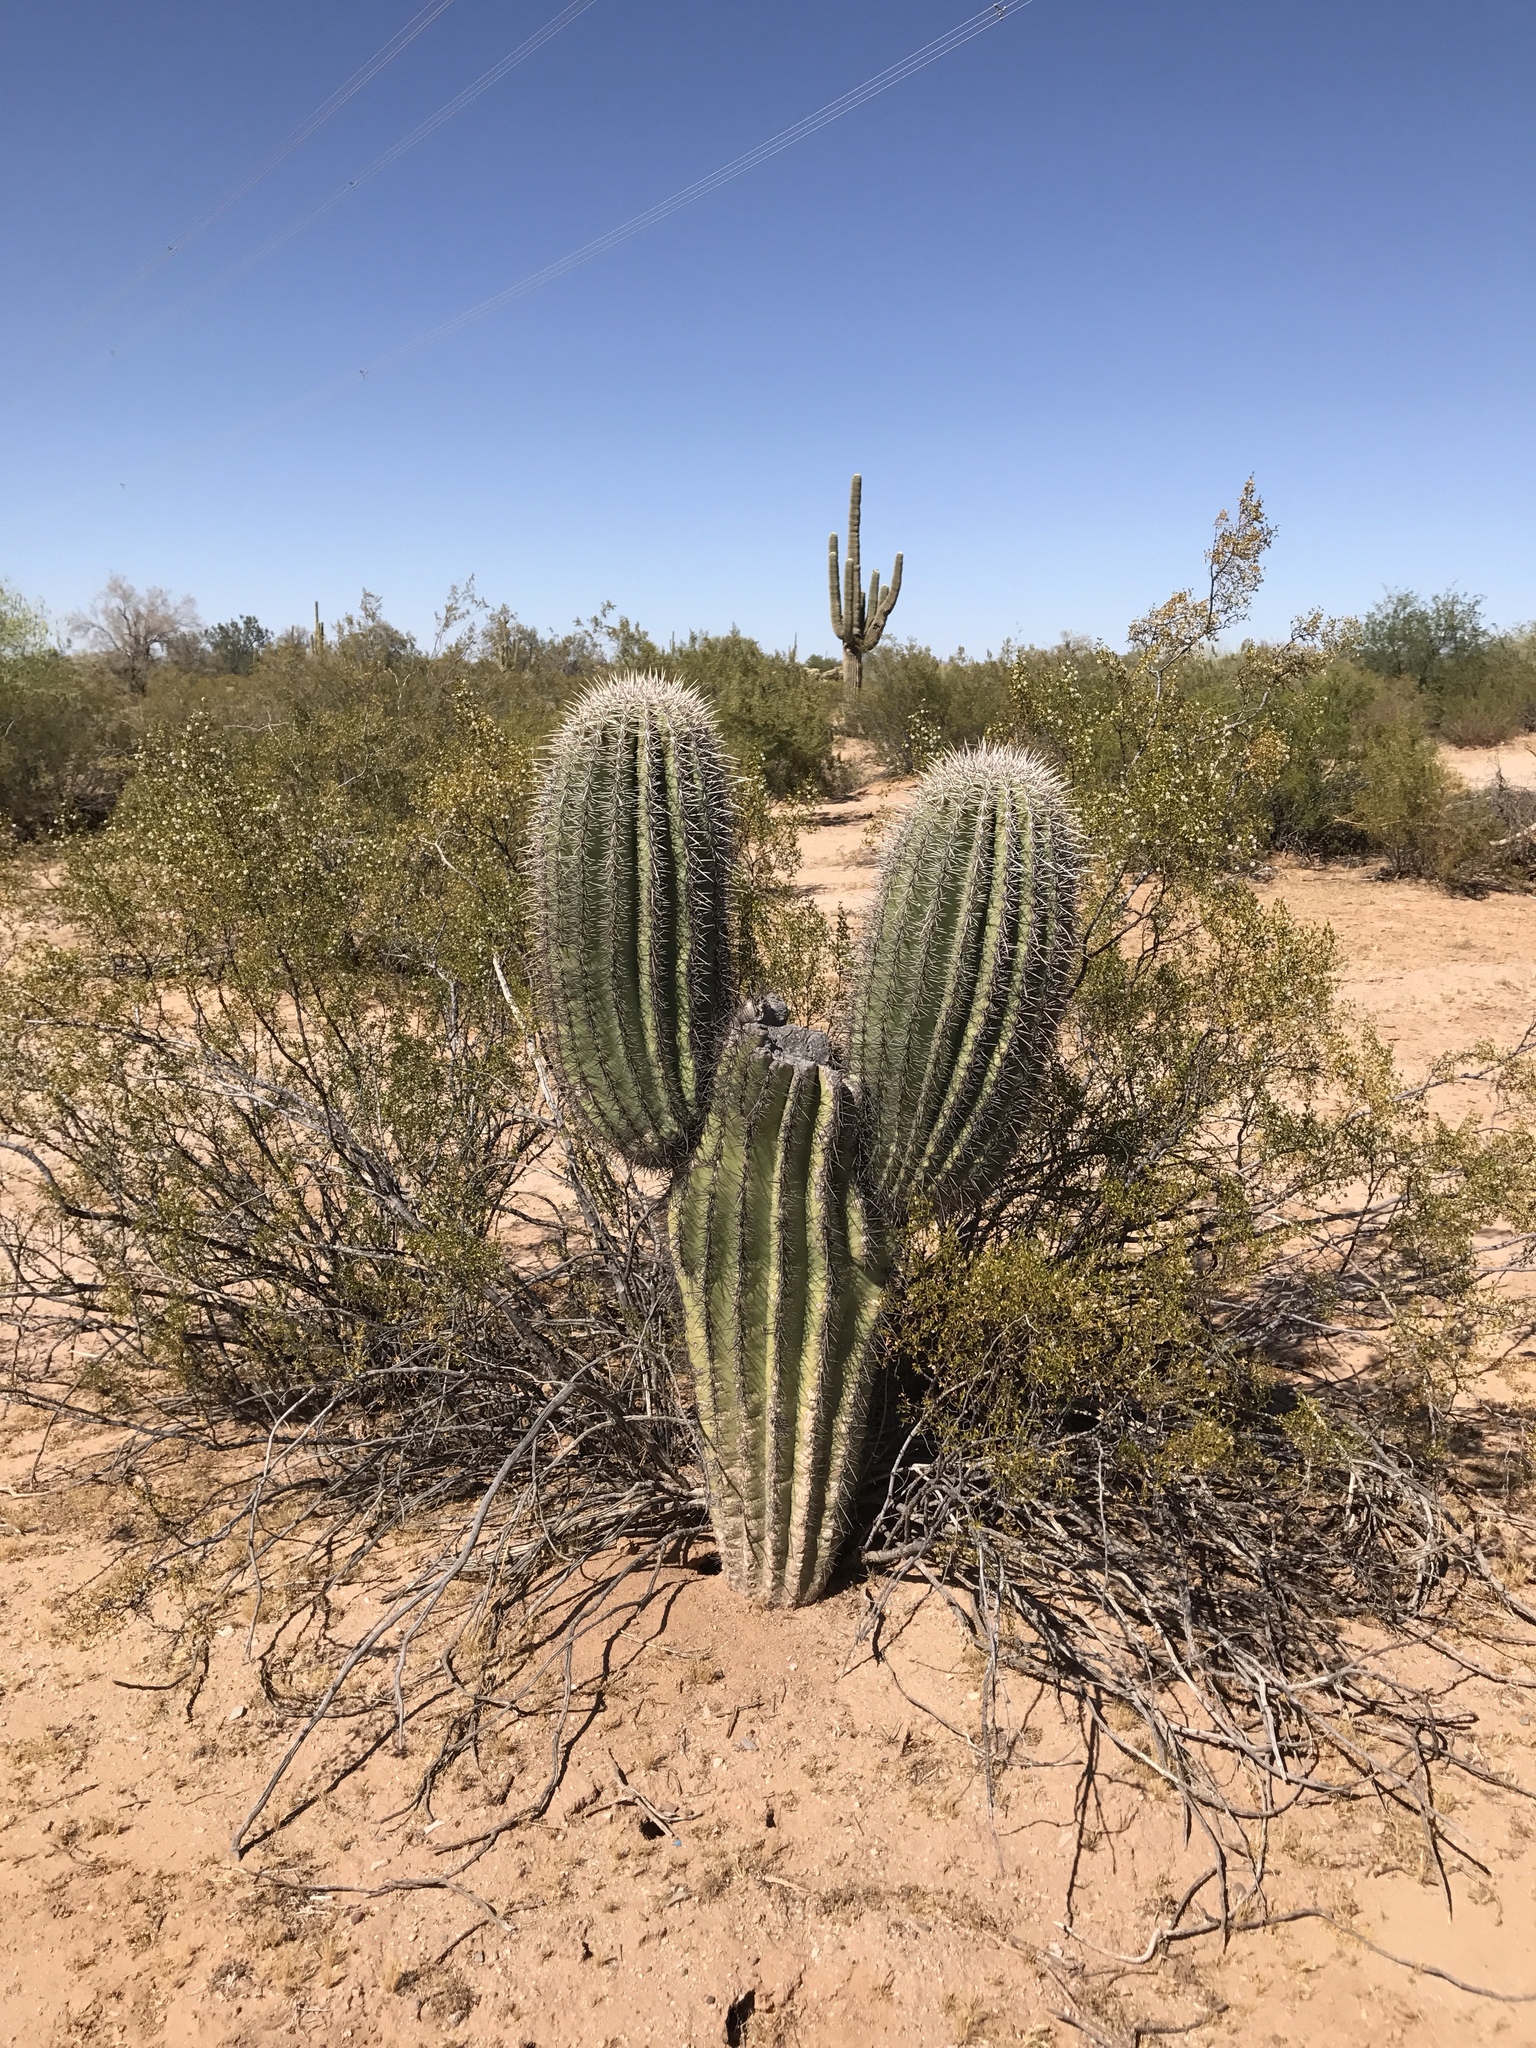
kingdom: Plantae
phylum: Tracheophyta
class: Magnoliopsida
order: Caryophyllales
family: Cactaceae
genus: Carnegiea
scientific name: Carnegiea gigantea
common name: Saguaro
